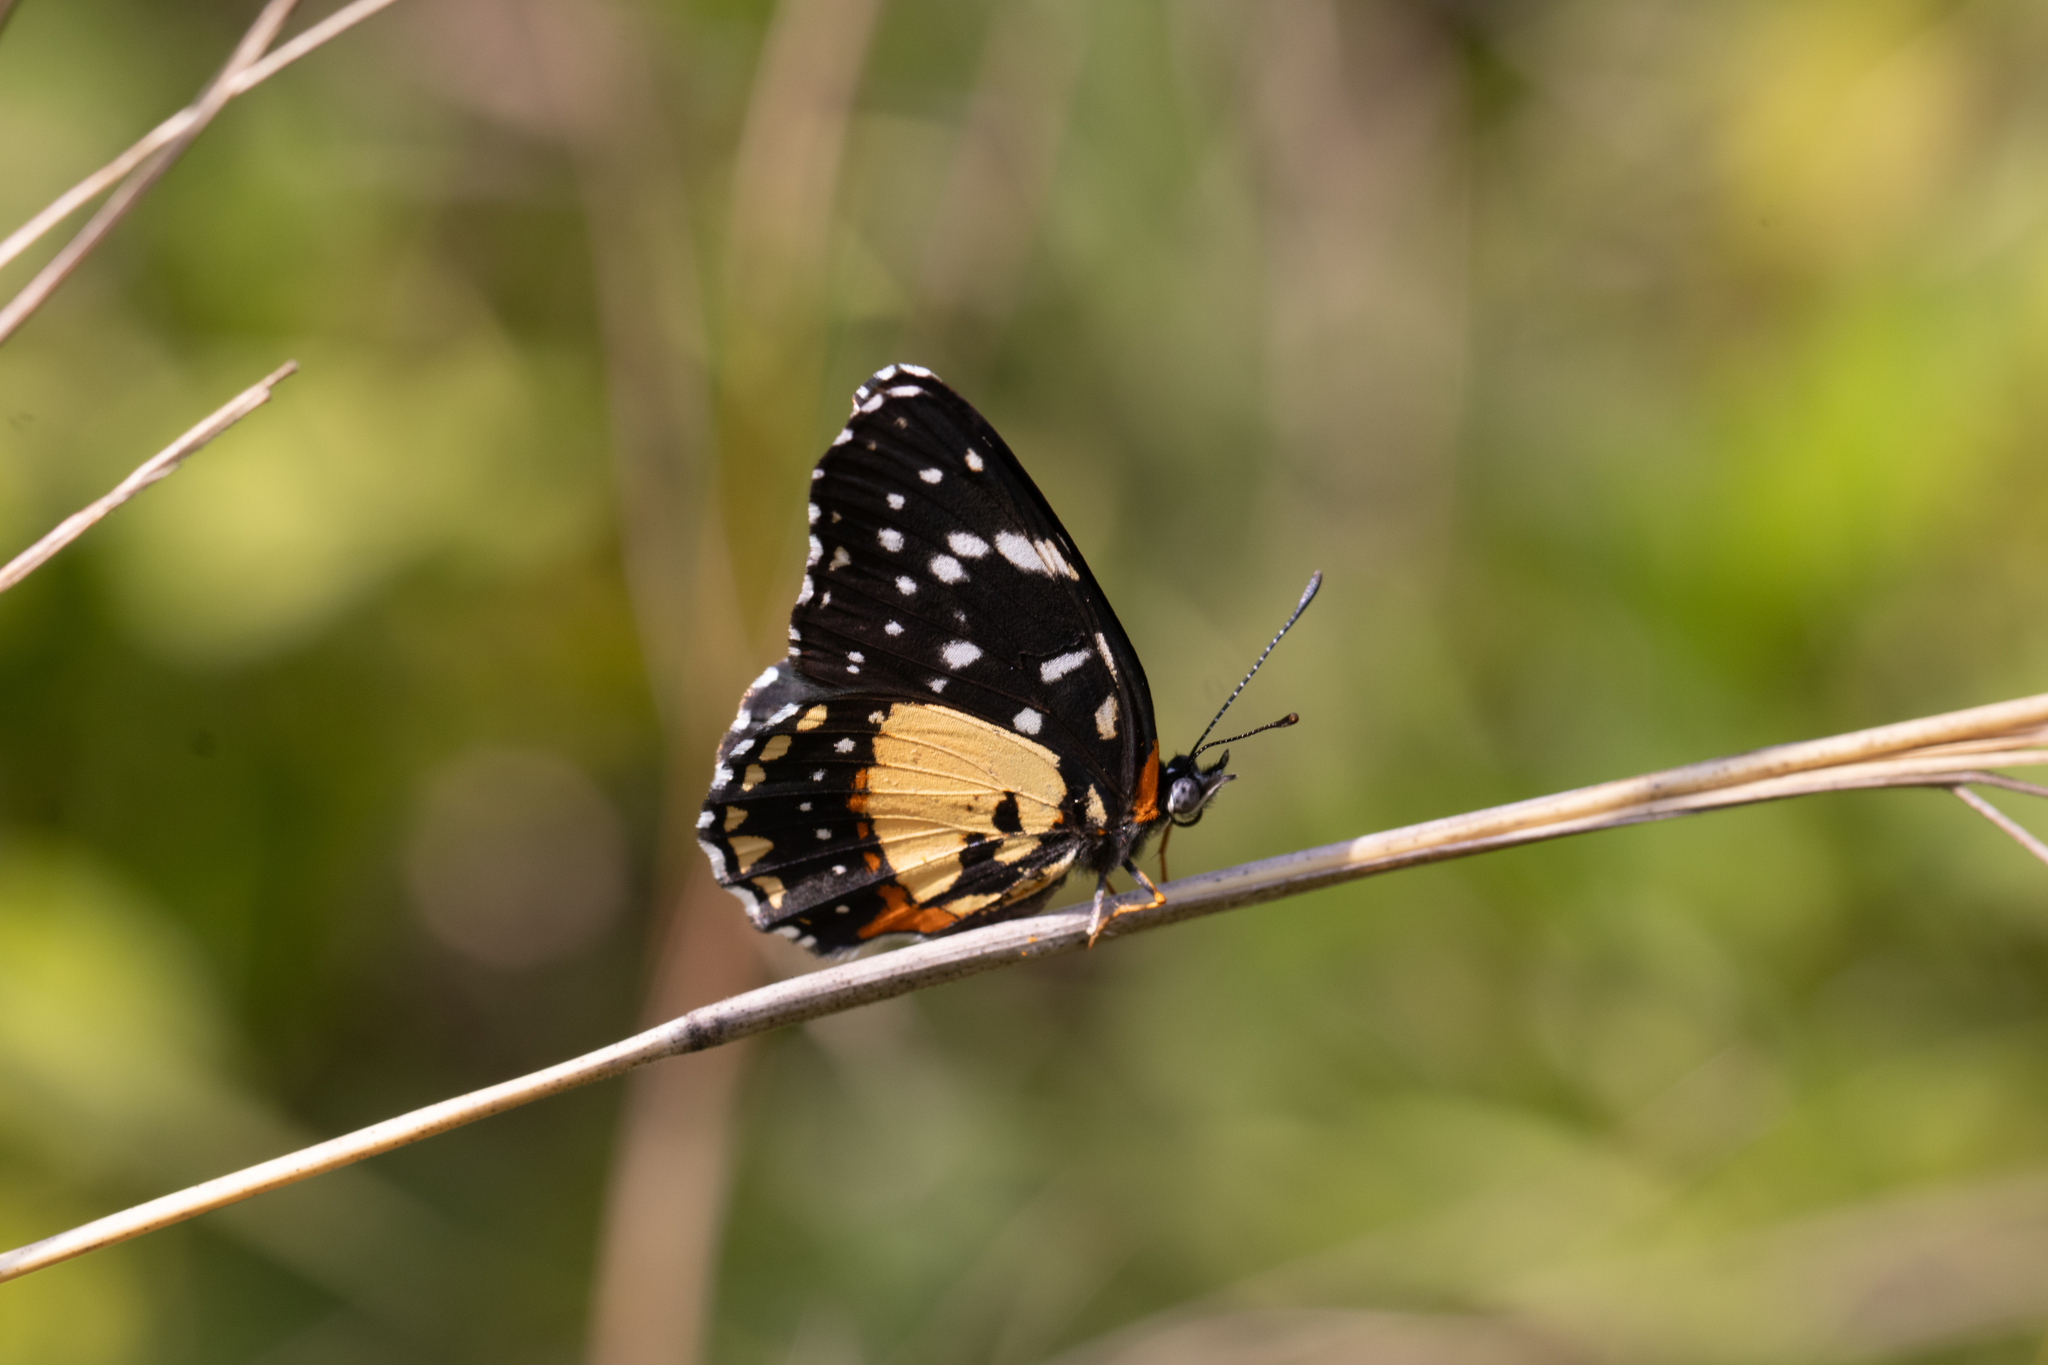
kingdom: Animalia
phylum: Arthropoda
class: Insecta
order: Lepidoptera
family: Nymphalidae
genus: Chlosyne
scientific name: Chlosyne lacinia
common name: Bordered patch
